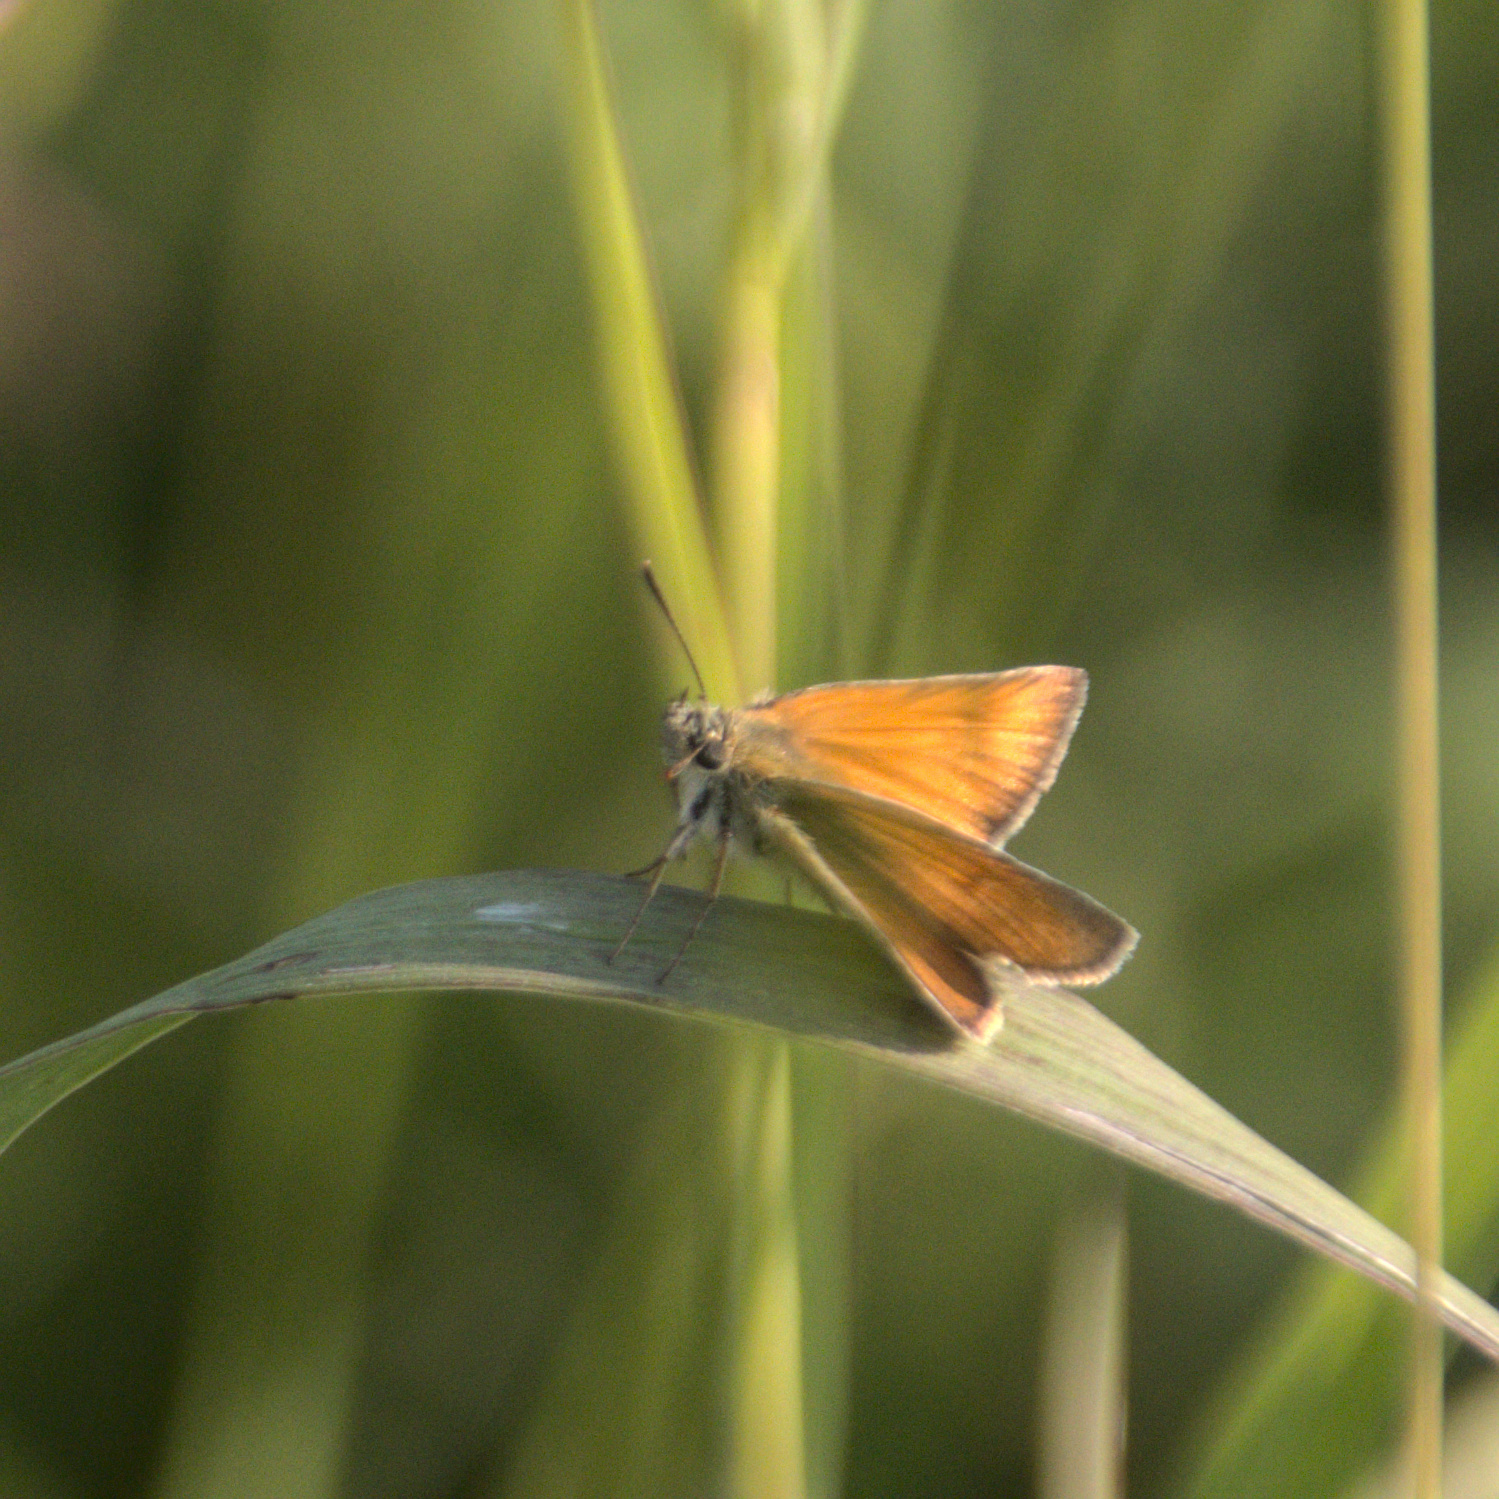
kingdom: Animalia
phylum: Arthropoda
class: Insecta
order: Lepidoptera
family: Hesperiidae
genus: Thymelicus
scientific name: Thymelicus lineola
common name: Essex skipper
